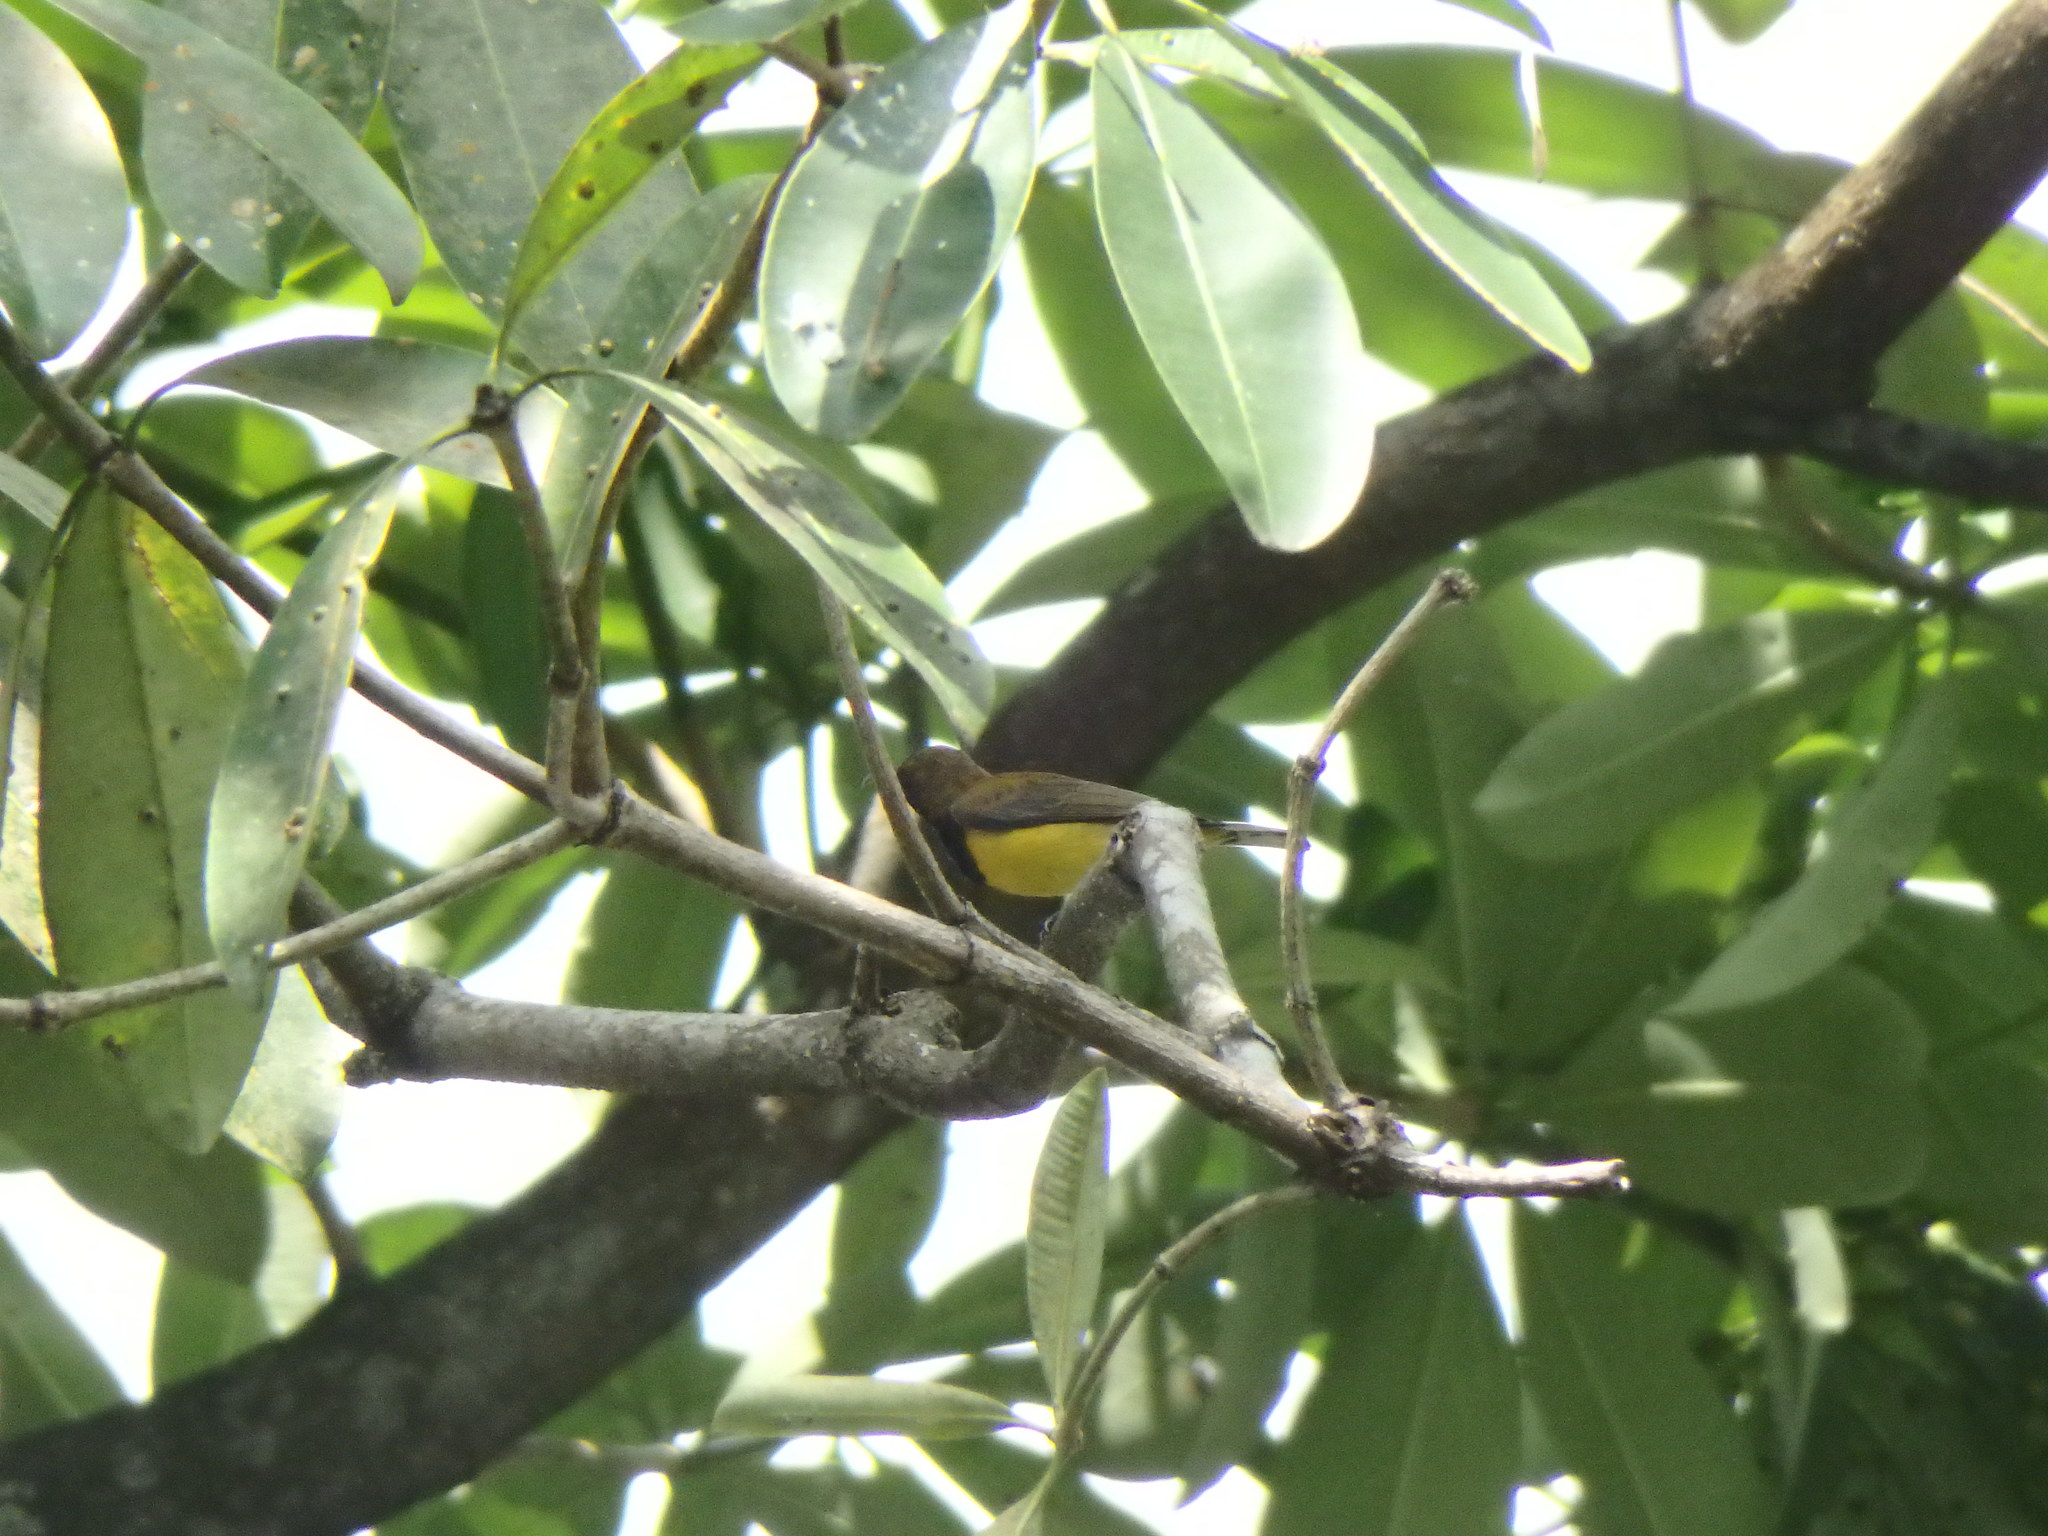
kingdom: Animalia
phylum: Chordata
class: Aves
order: Passeriformes
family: Nectariniidae
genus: Cinnyris
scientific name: Cinnyris
